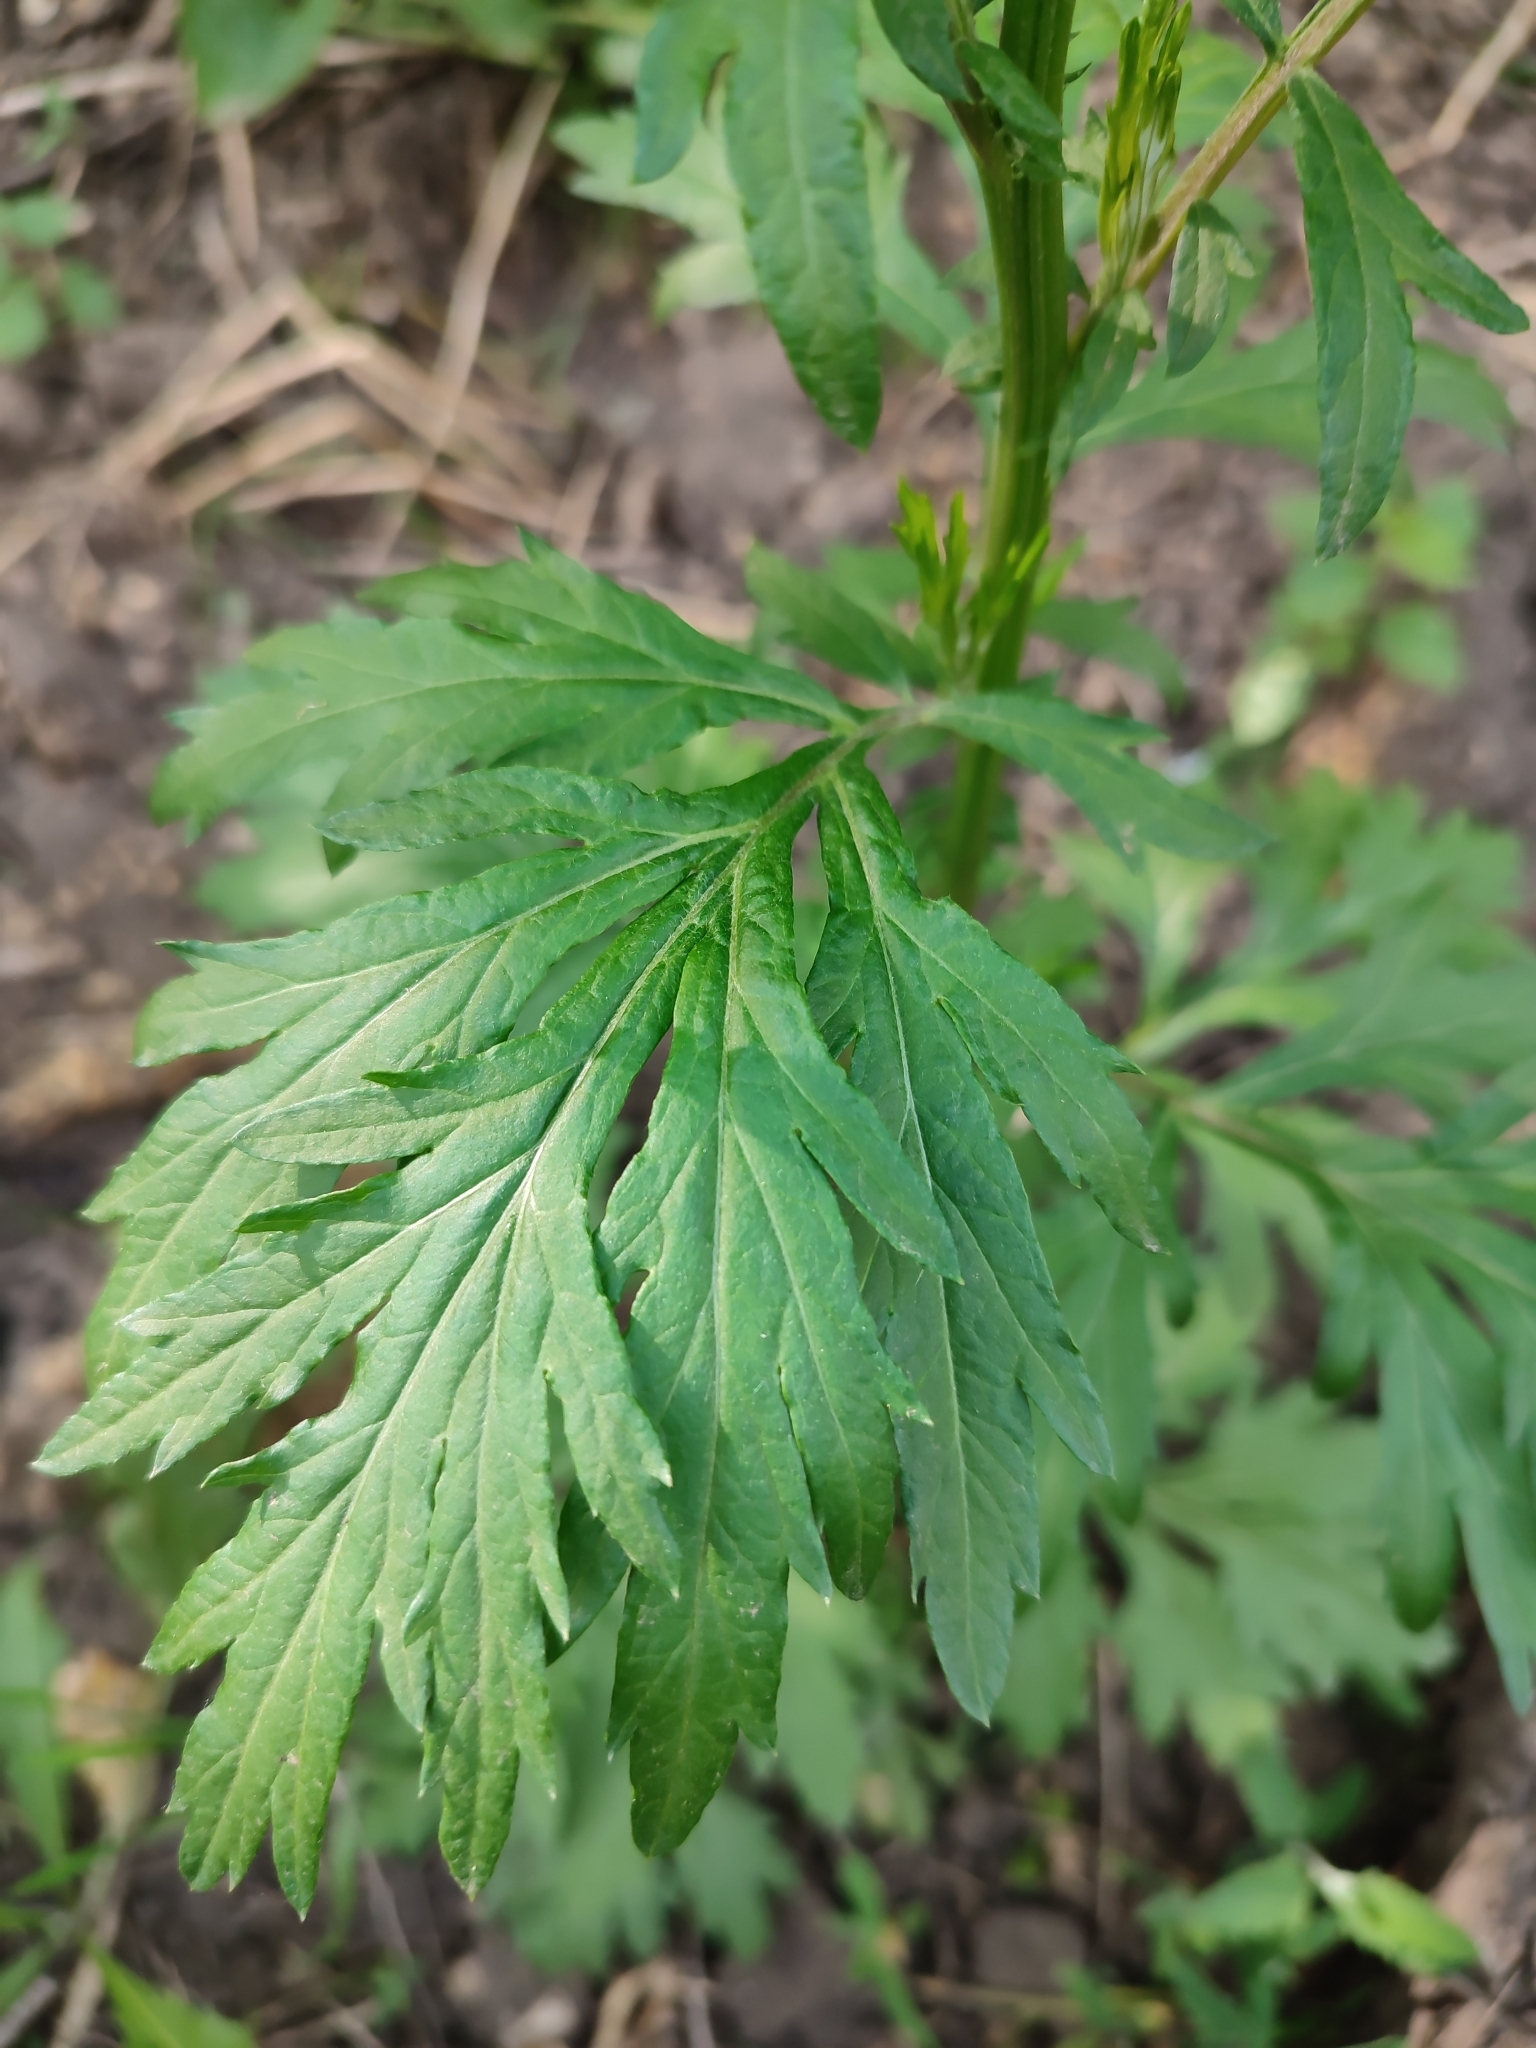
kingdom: Plantae
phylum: Tracheophyta
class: Magnoliopsida
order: Asterales
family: Asteraceae
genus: Artemisia
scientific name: Artemisia vulgaris
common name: Mugwort
